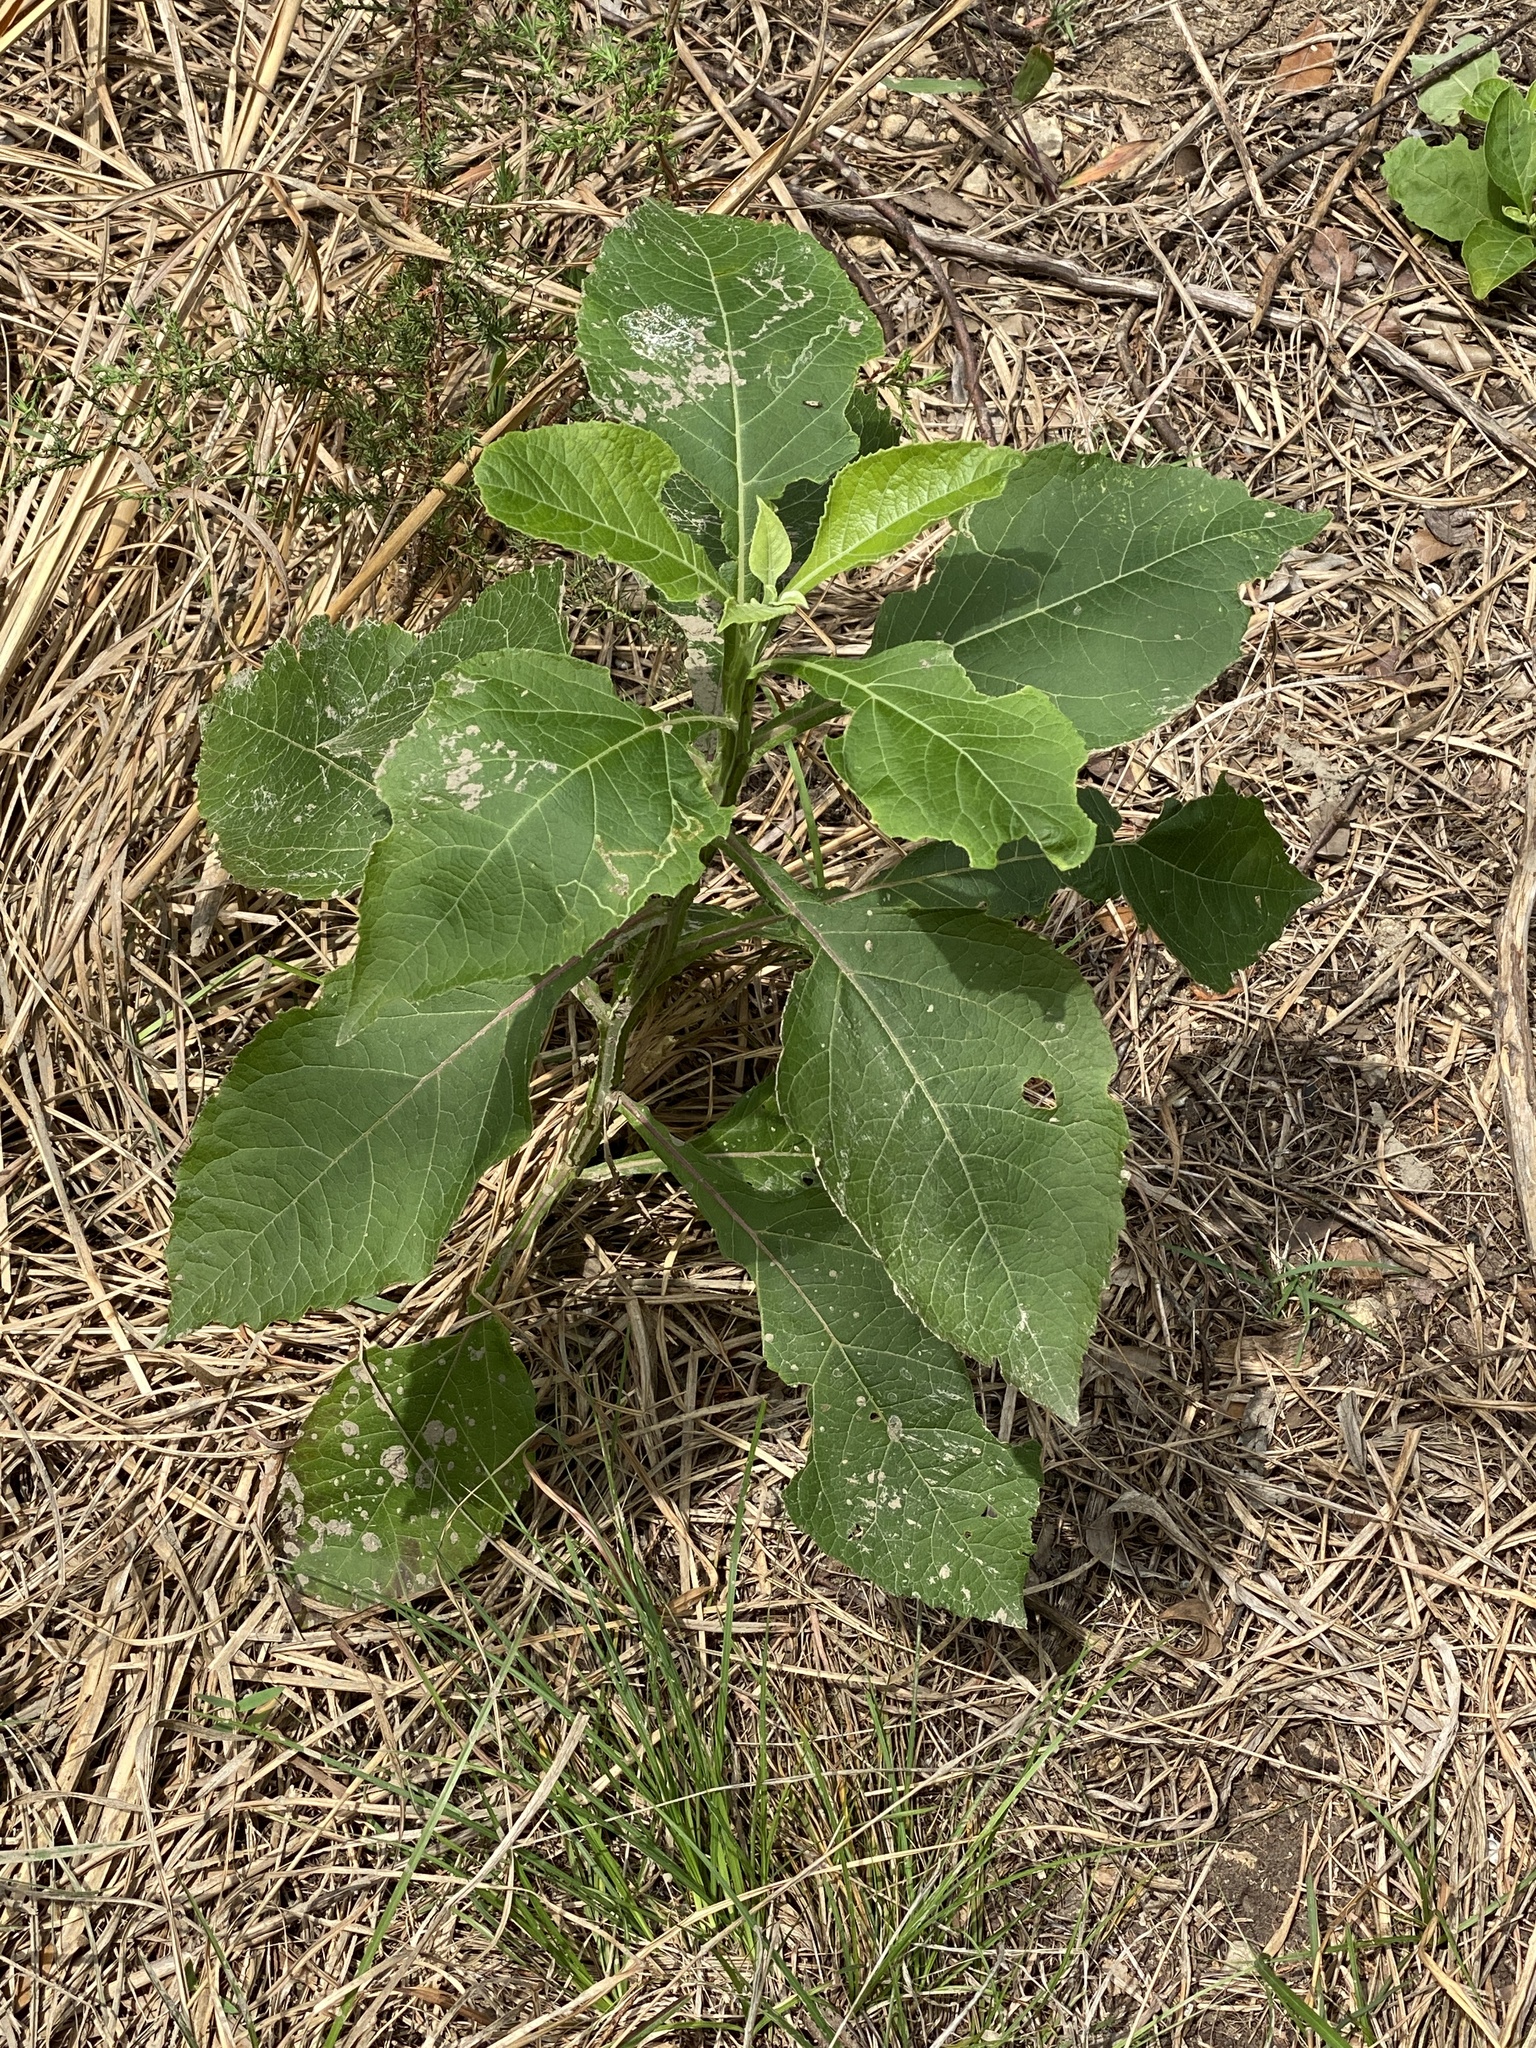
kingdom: Plantae
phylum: Tracheophyta
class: Magnoliopsida
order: Asterales
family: Asteraceae
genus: Verbesina
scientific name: Verbesina virginica
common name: Frostweed
